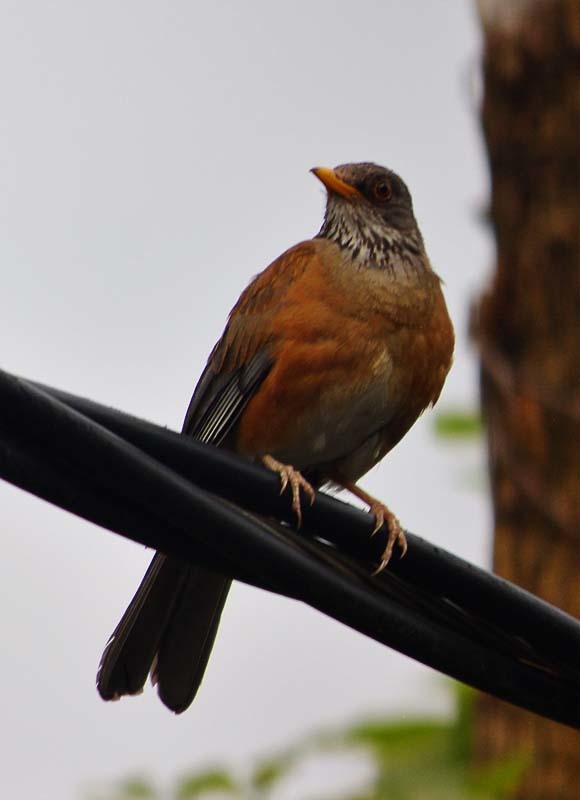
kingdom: Animalia
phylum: Chordata
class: Aves
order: Passeriformes
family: Turdidae
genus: Turdus
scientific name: Turdus rufopalliatus
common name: Rufous-backed robin
